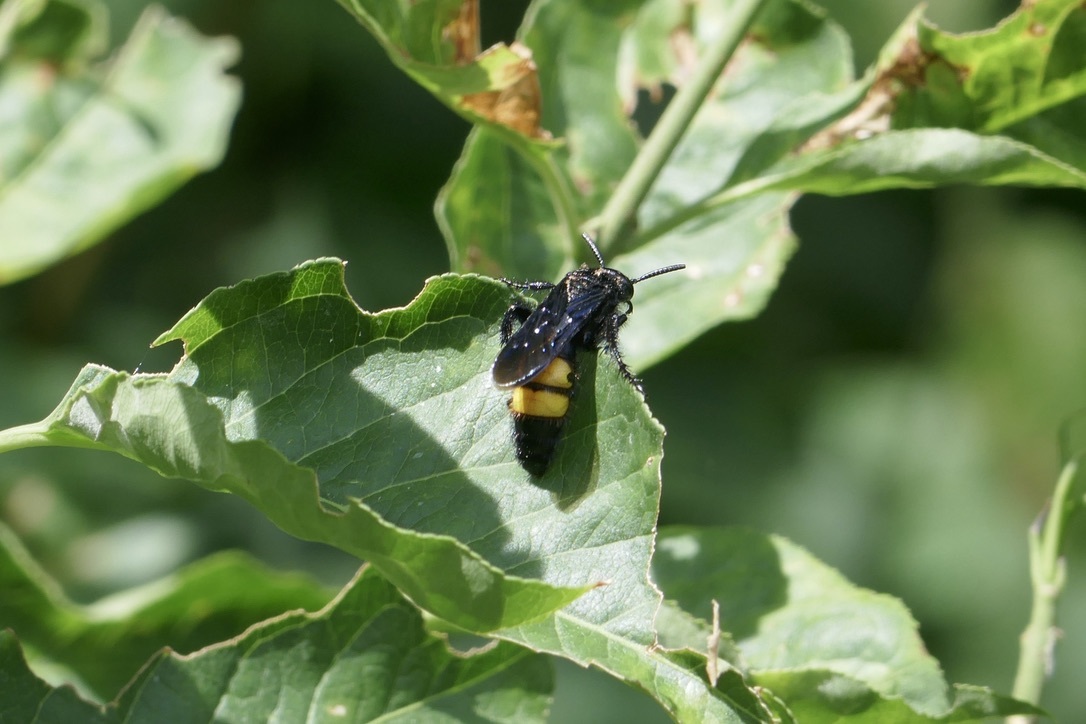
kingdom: Animalia
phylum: Arthropoda
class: Insecta
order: Hymenoptera
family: Scoliidae
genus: Scolia
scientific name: Scolia hirta
